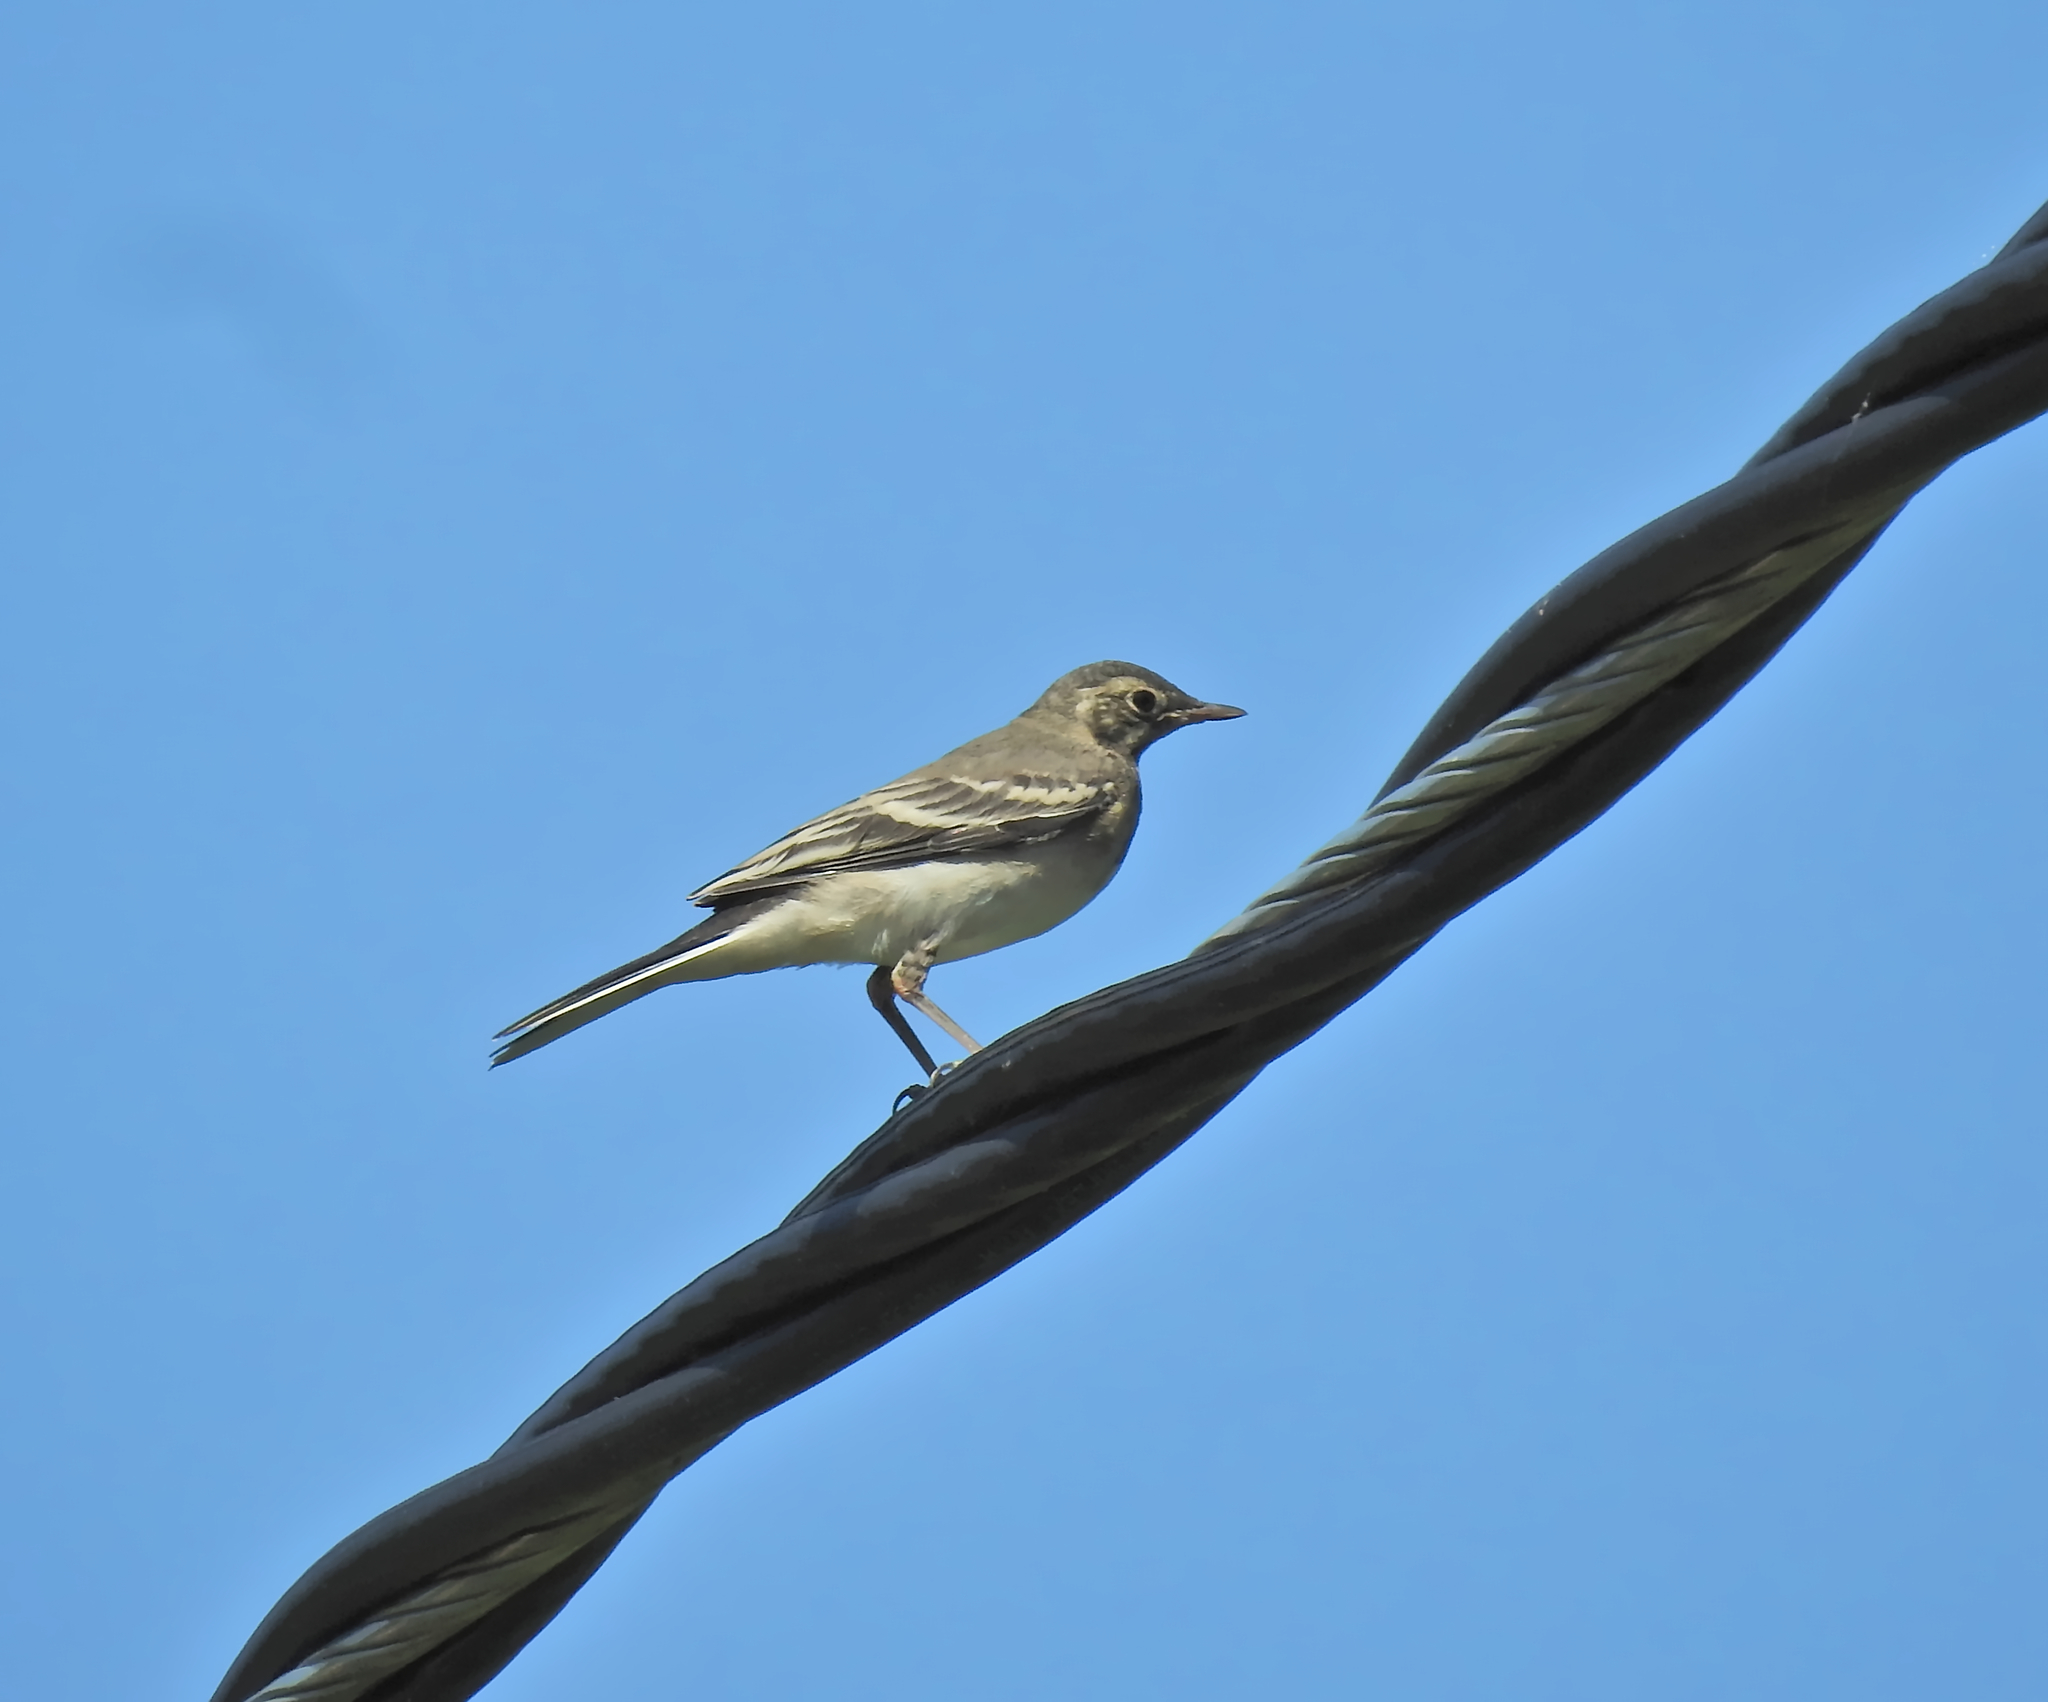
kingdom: Animalia
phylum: Chordata
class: Aves
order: Passeriformes
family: Motacillidae
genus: Motacilla
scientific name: Motacilla alba
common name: White wagtail
